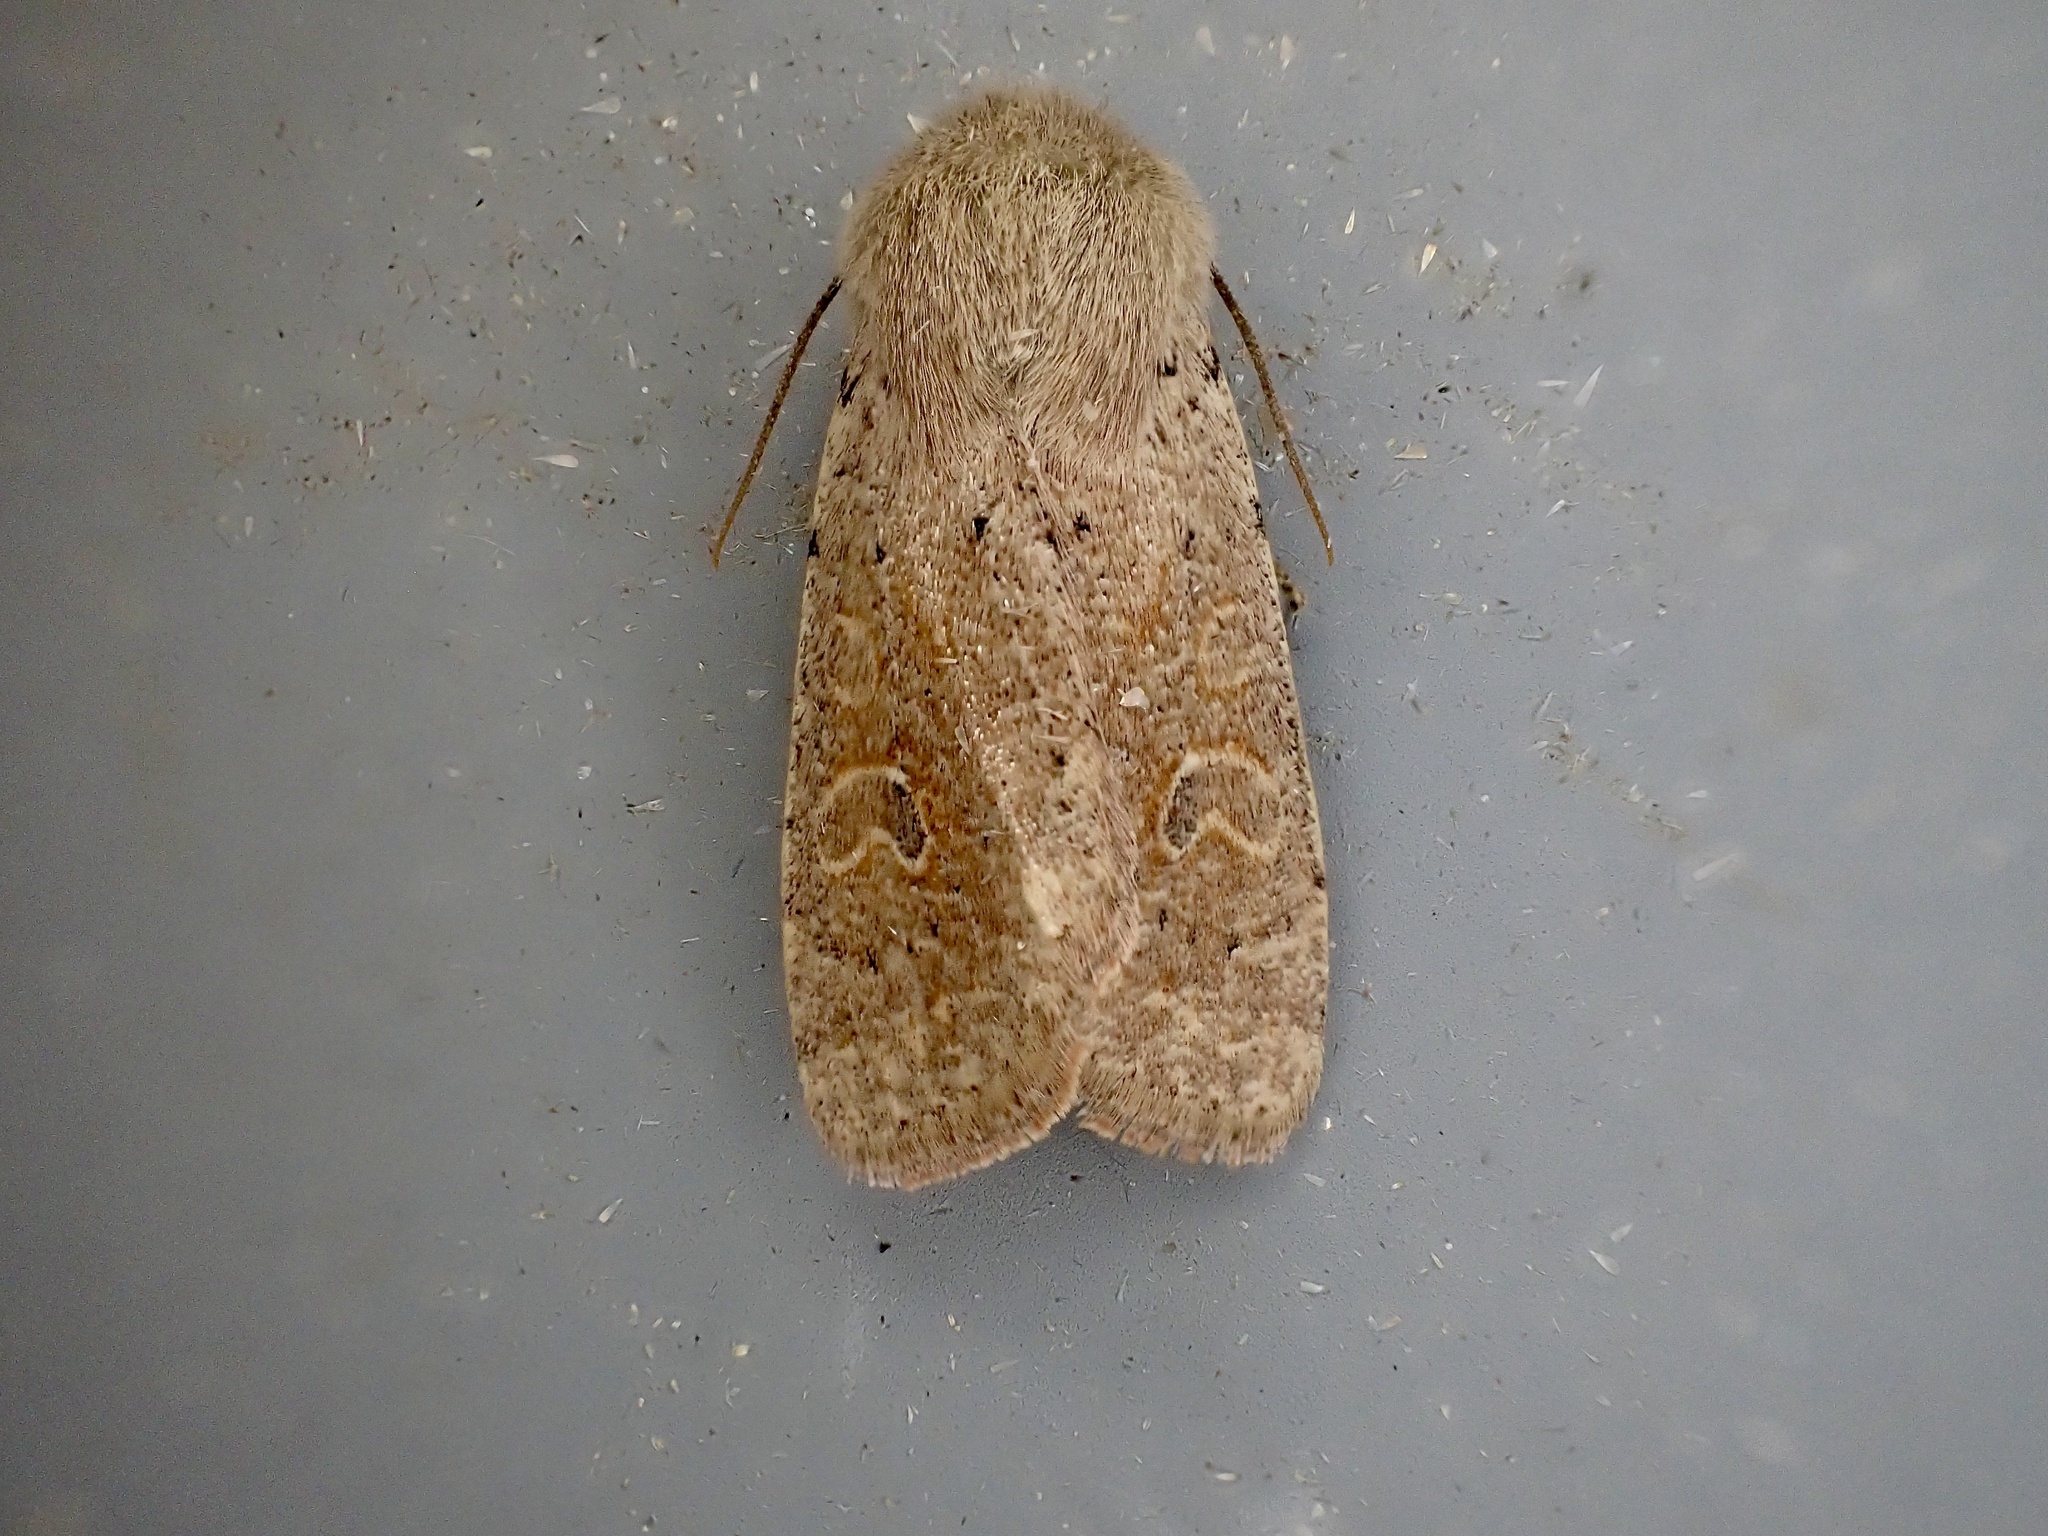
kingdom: Animalia
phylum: Arthropoda
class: Insecta
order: Lepidoptera
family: Noctuidae
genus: Orthosia
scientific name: Orthosia cruda
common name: Small quaker
